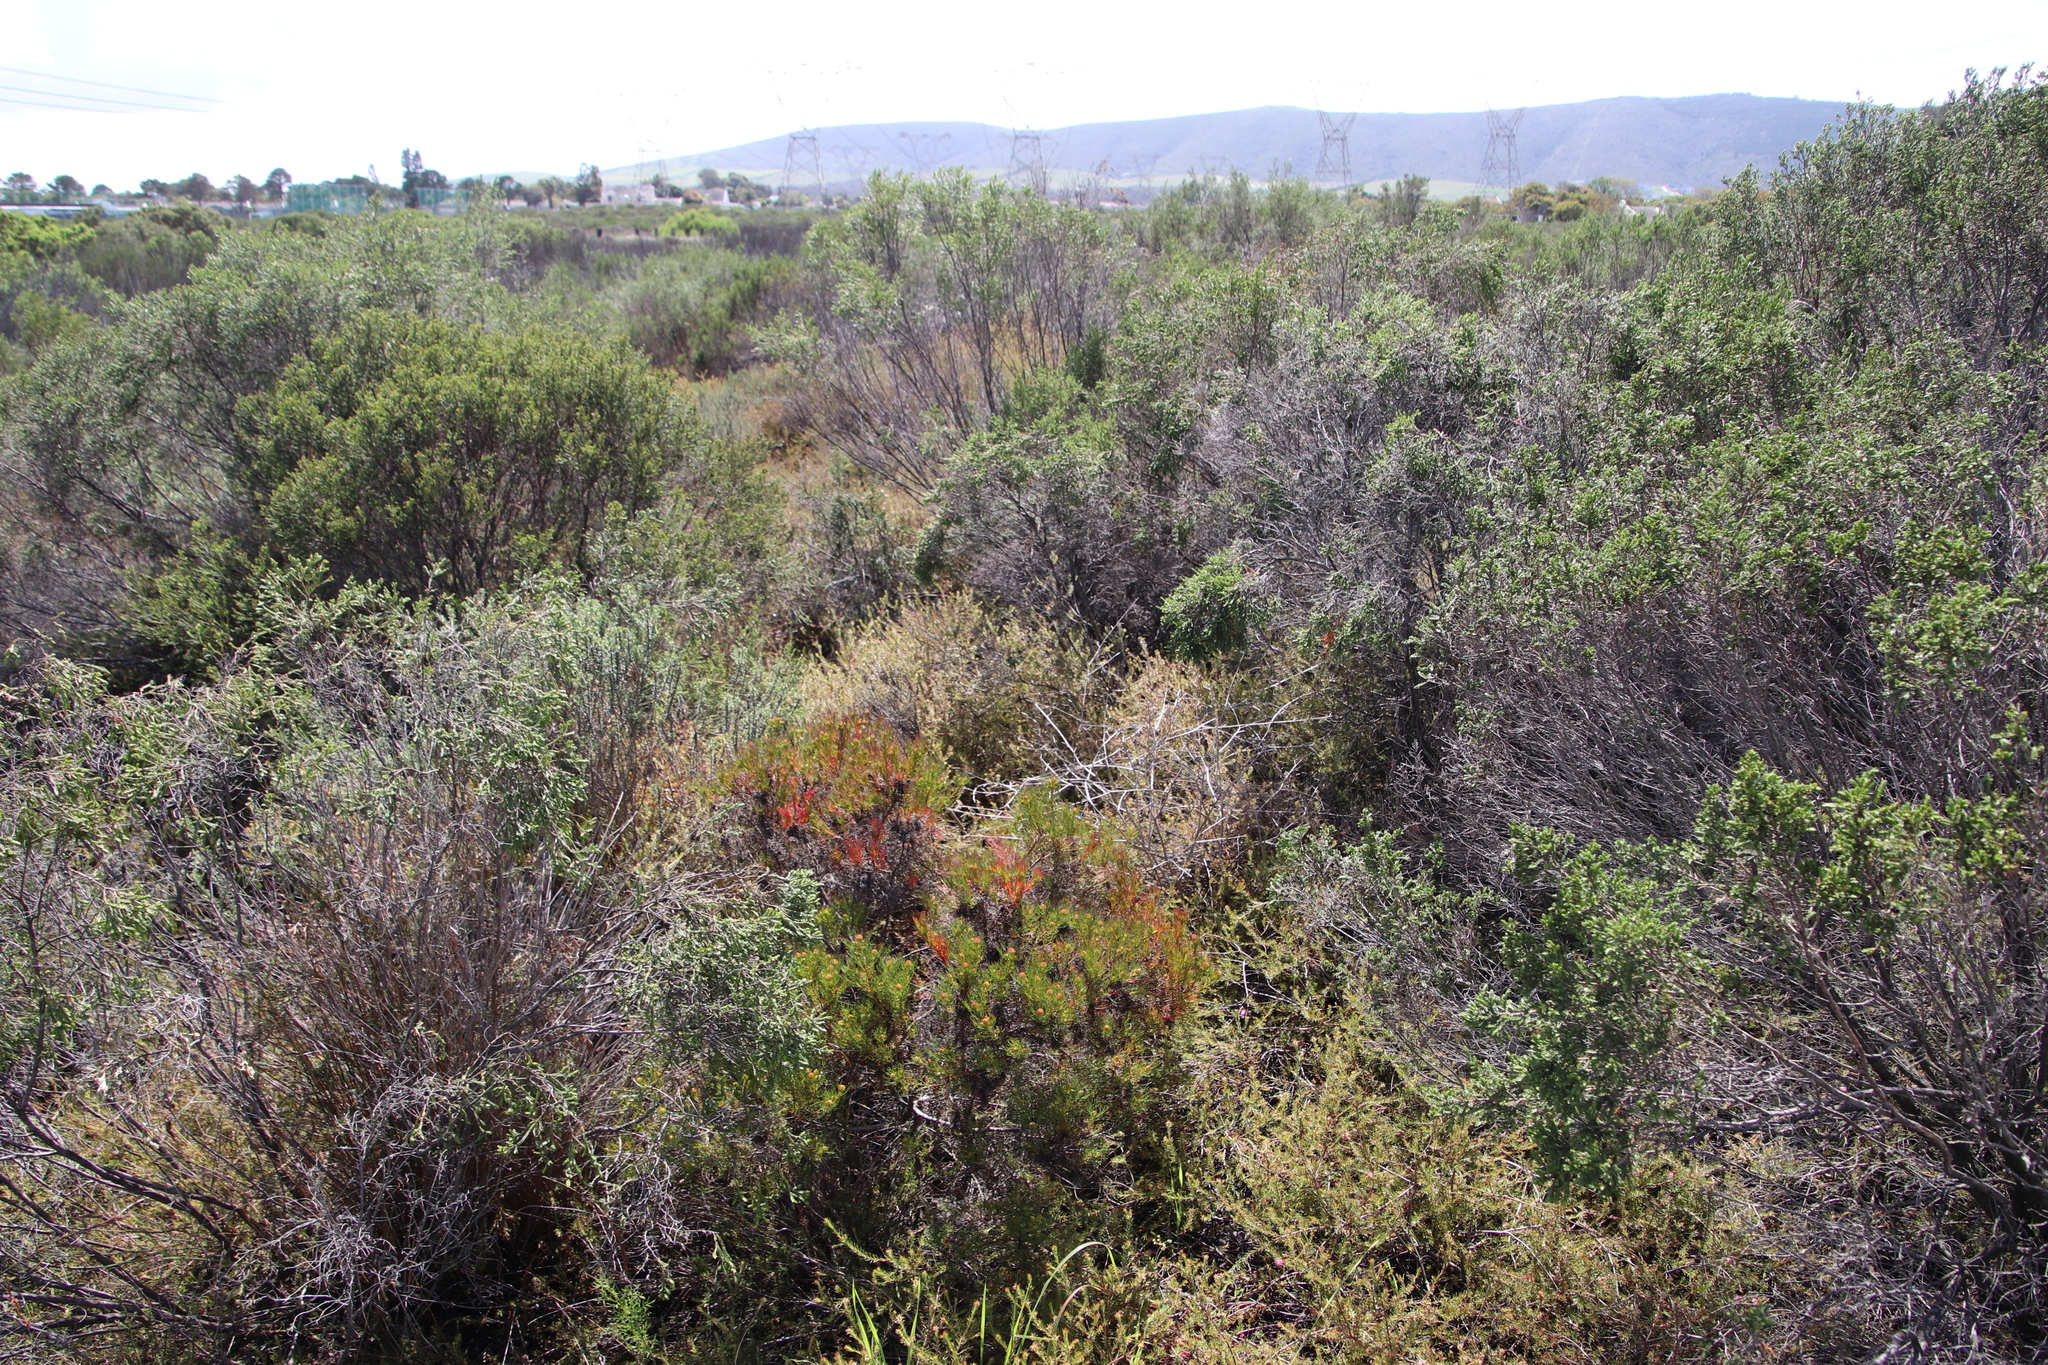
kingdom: Plantae
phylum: Tracheophyta
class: Magnoliopsida
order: Proteales
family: Proteaceae
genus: Serruria
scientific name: Serruria aemula
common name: Strawberry spiderhead
